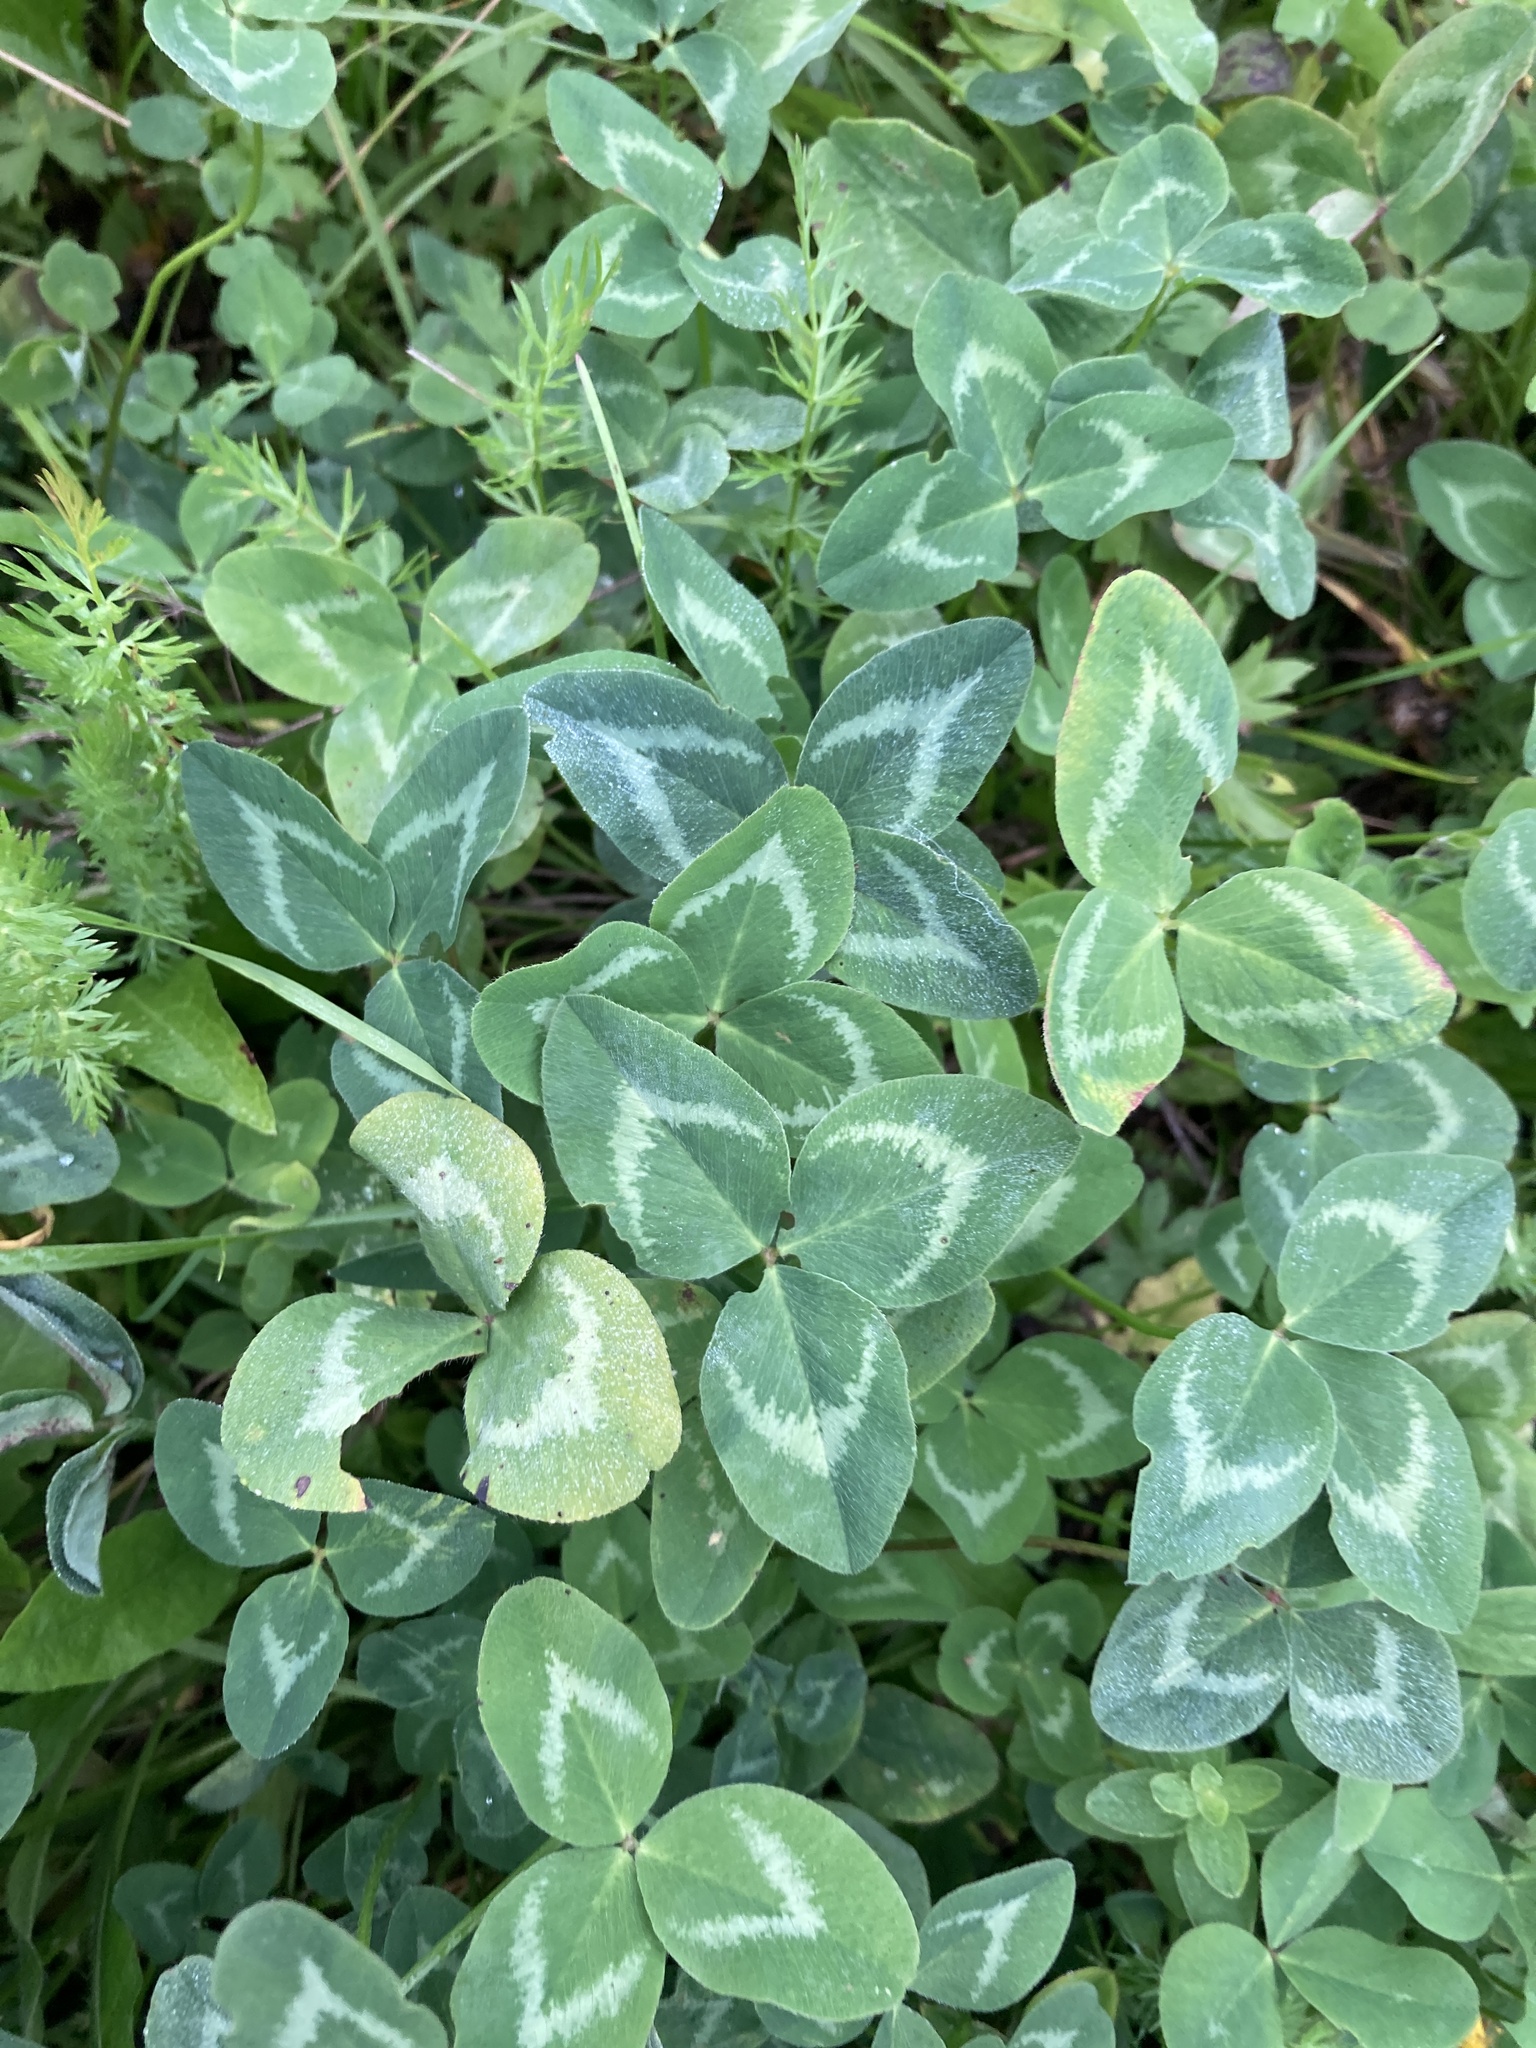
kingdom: Plantae
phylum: Tracheophyta
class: Magnoliopsida
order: Fabales
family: Fabaceae
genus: Trifolium
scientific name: Trifolium pratense
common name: Red clover
